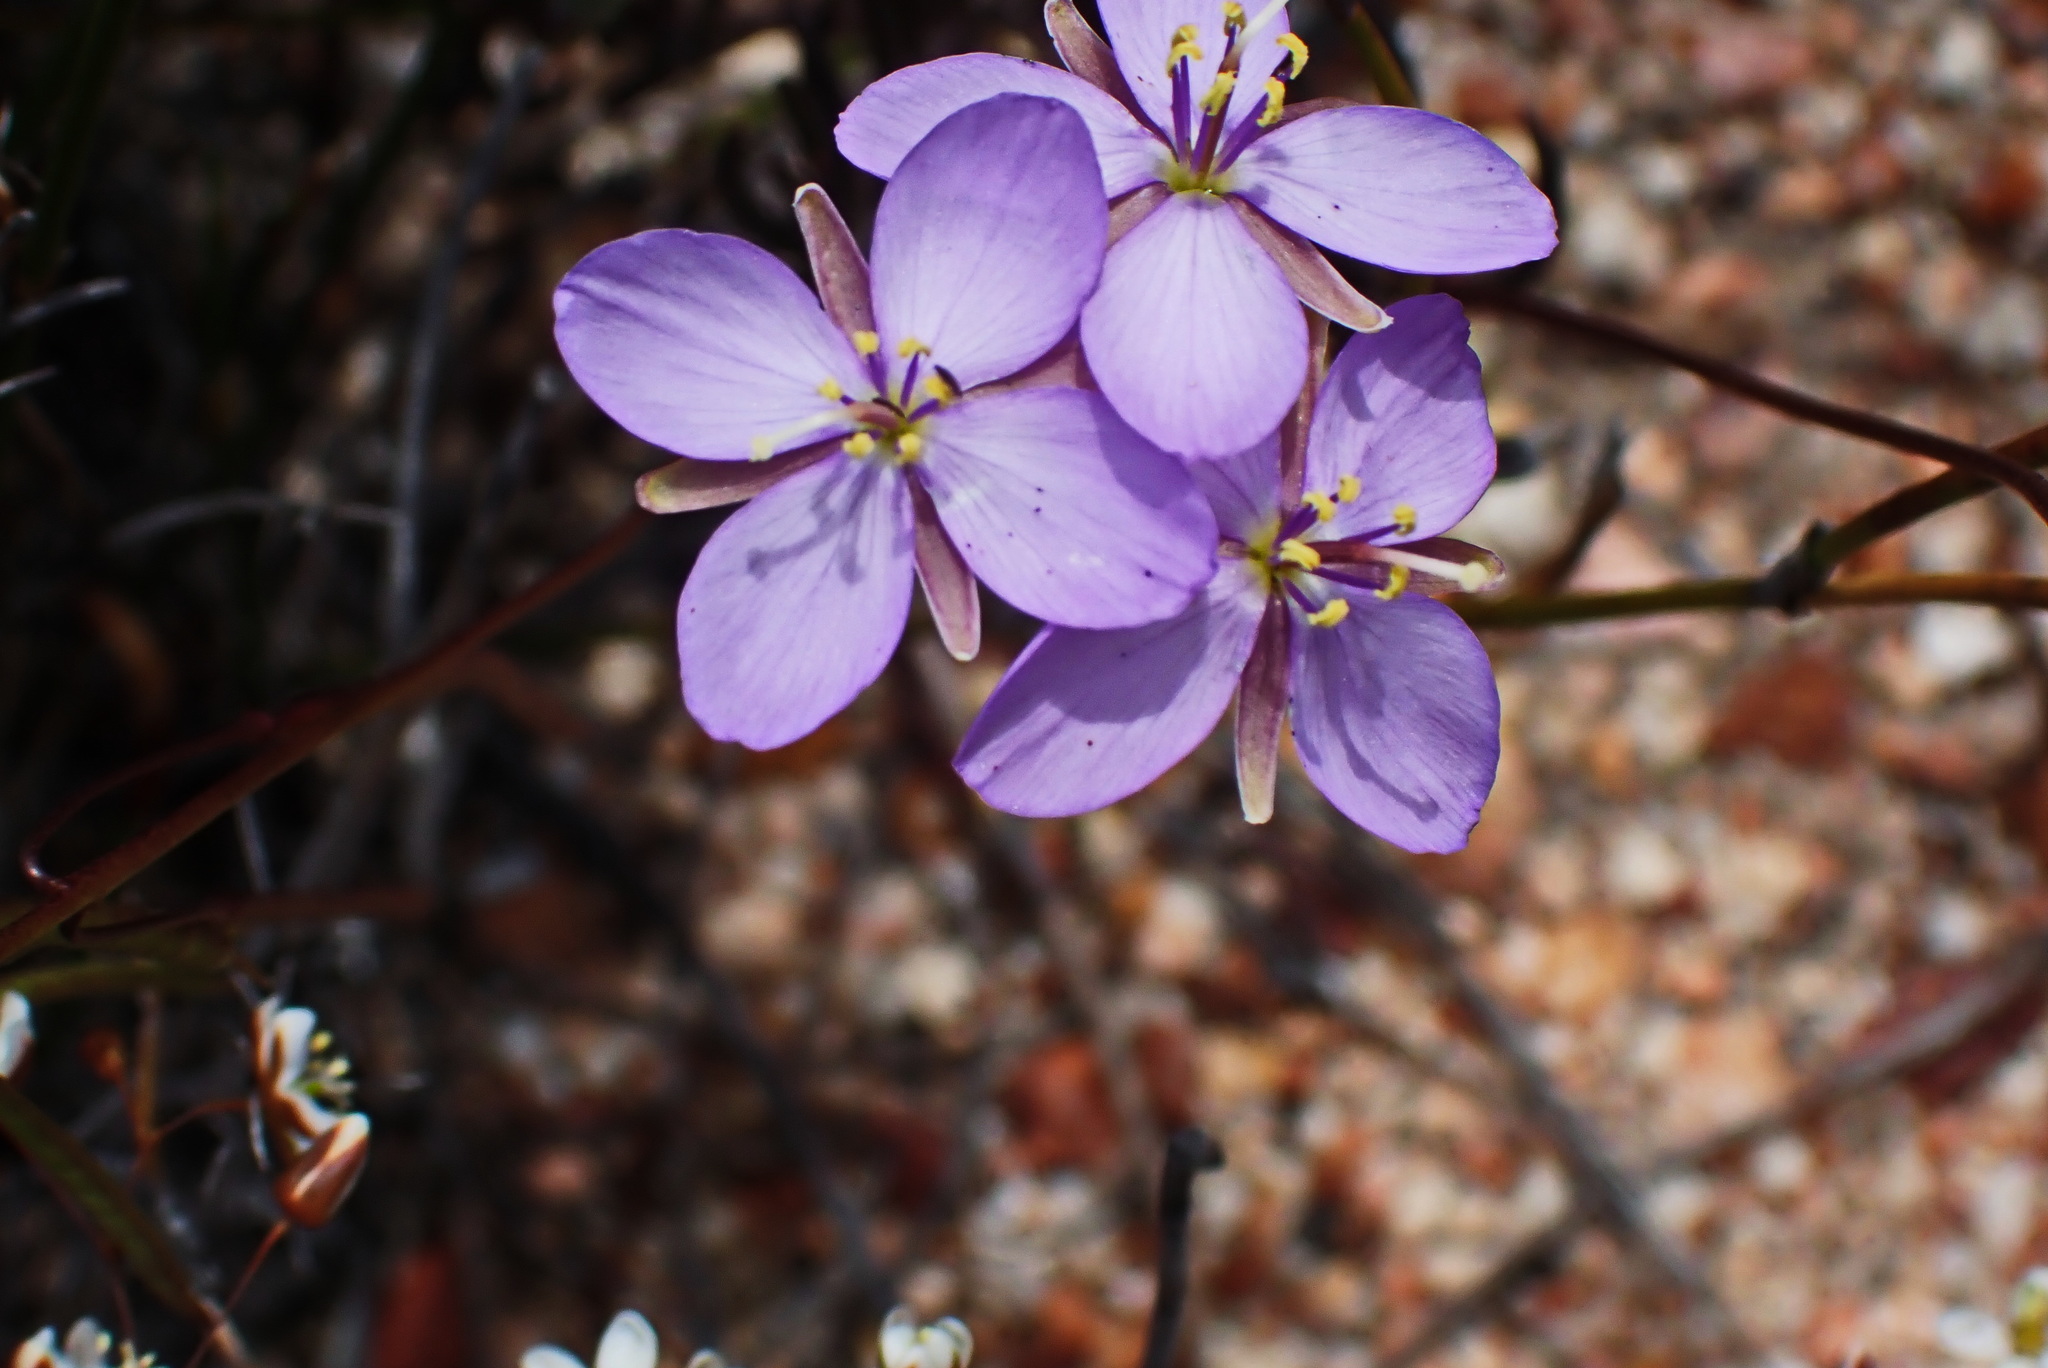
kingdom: Plantae
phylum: Tracheophyta
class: Magnoliopsida
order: Brassicales
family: Brassicaceae
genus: Heliophila
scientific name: Heliophila subulata
